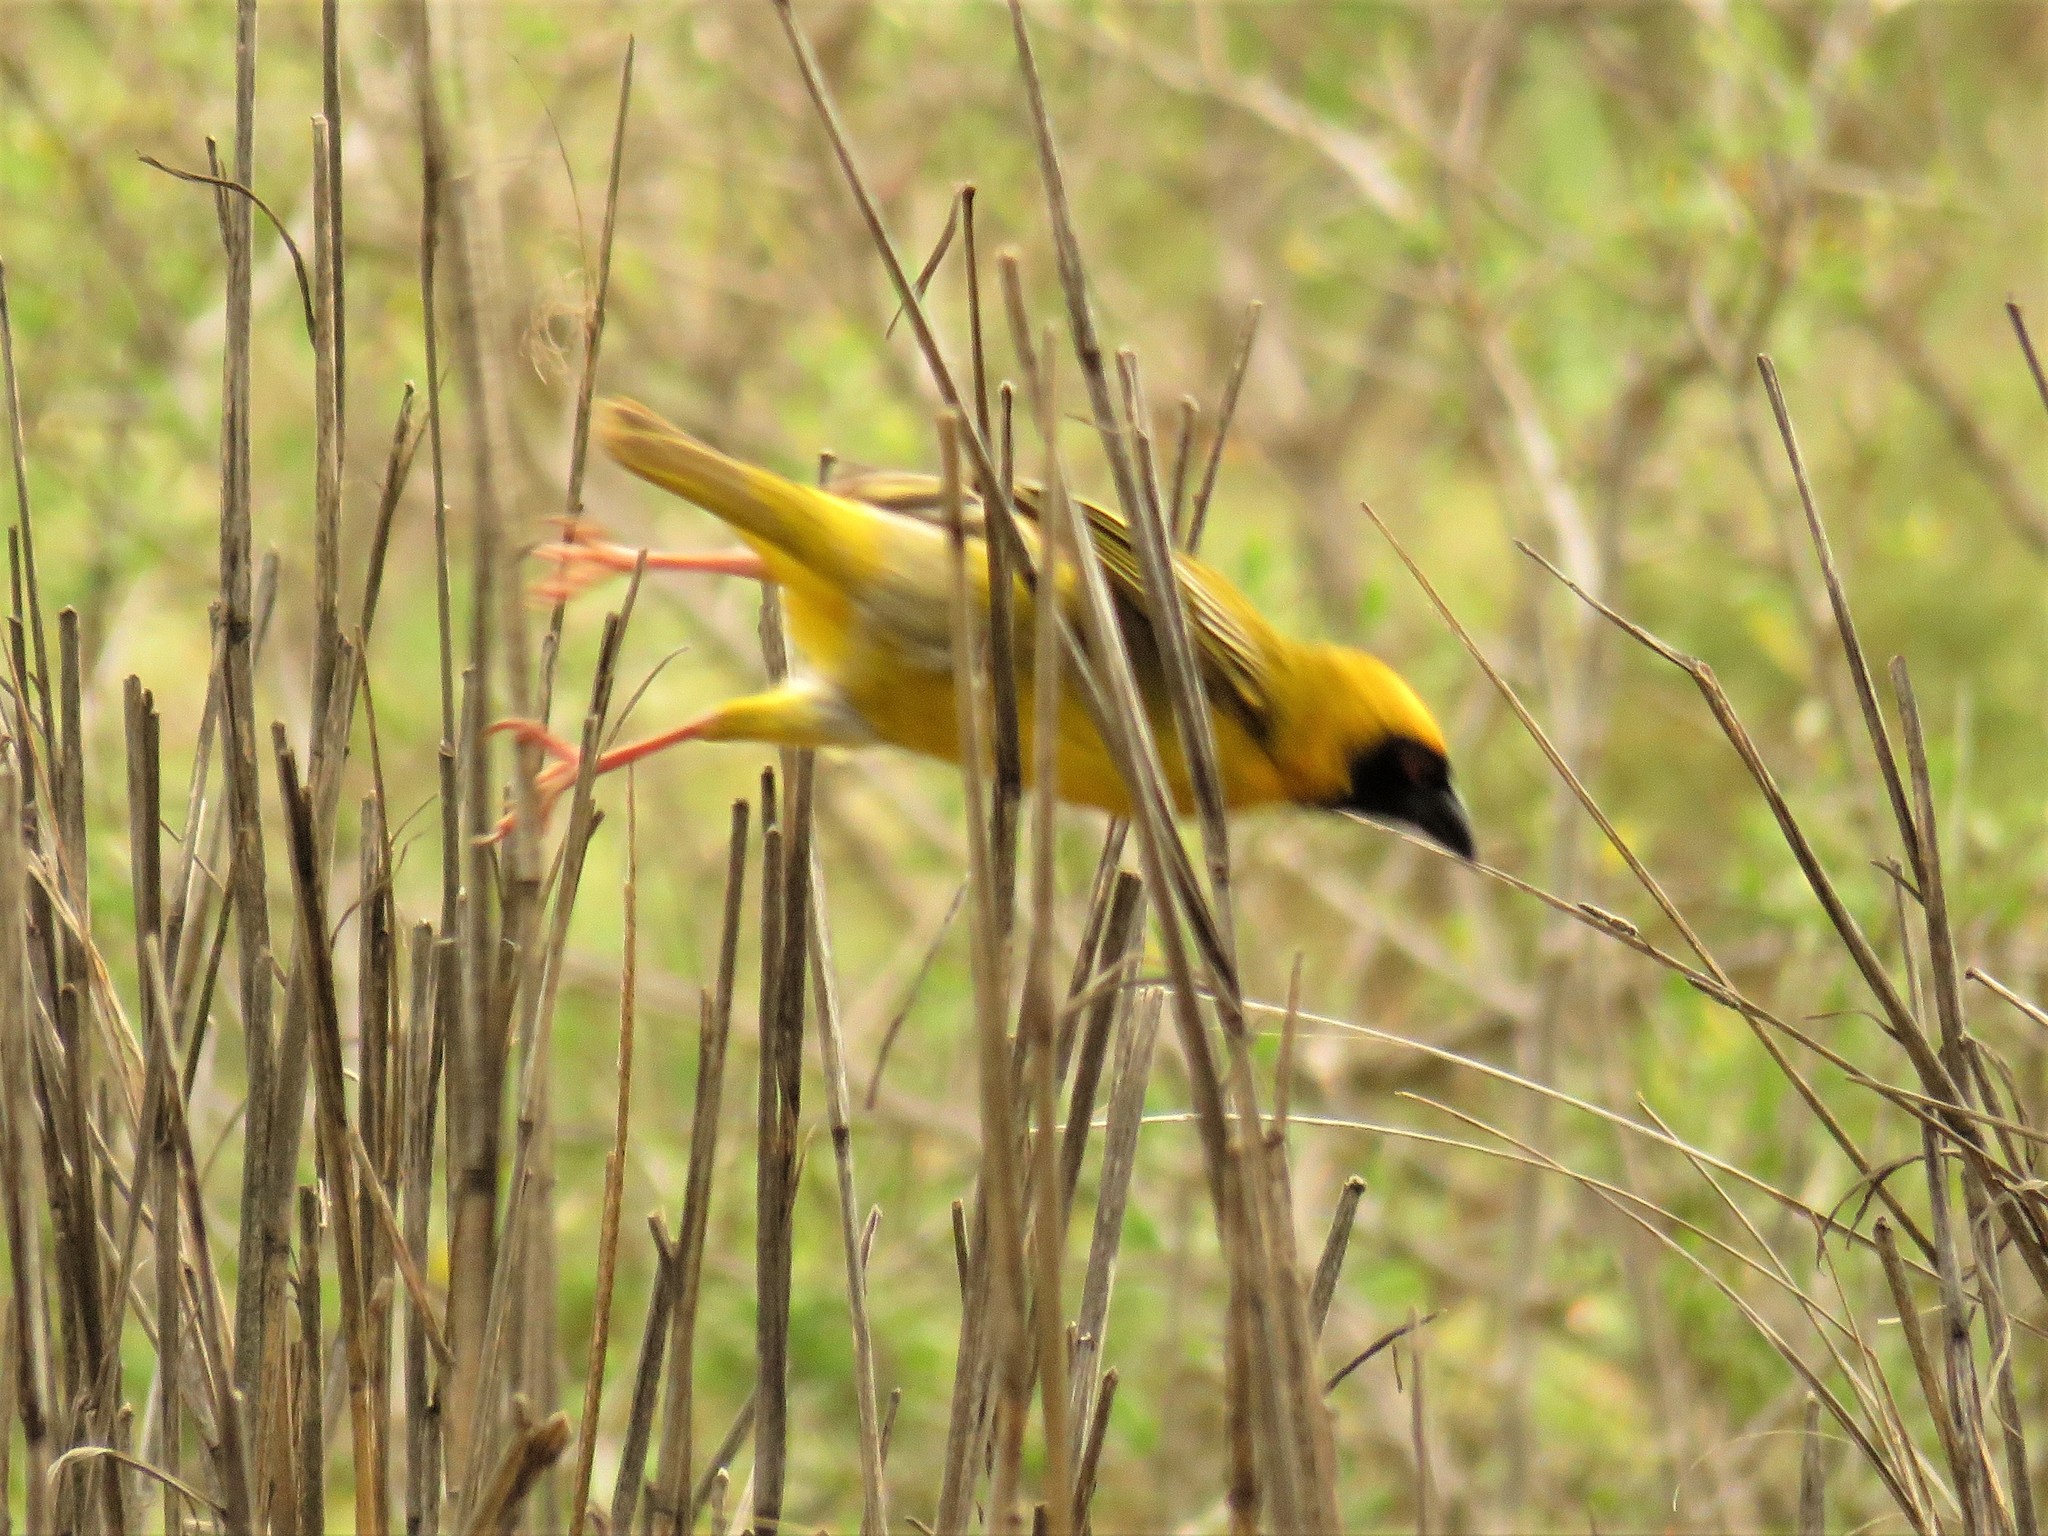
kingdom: Animalia
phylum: Chordata
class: Aves
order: Passeriformes
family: Ploceidae
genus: Ploceus
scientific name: Ploceus velatus
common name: Southern masked weaver
